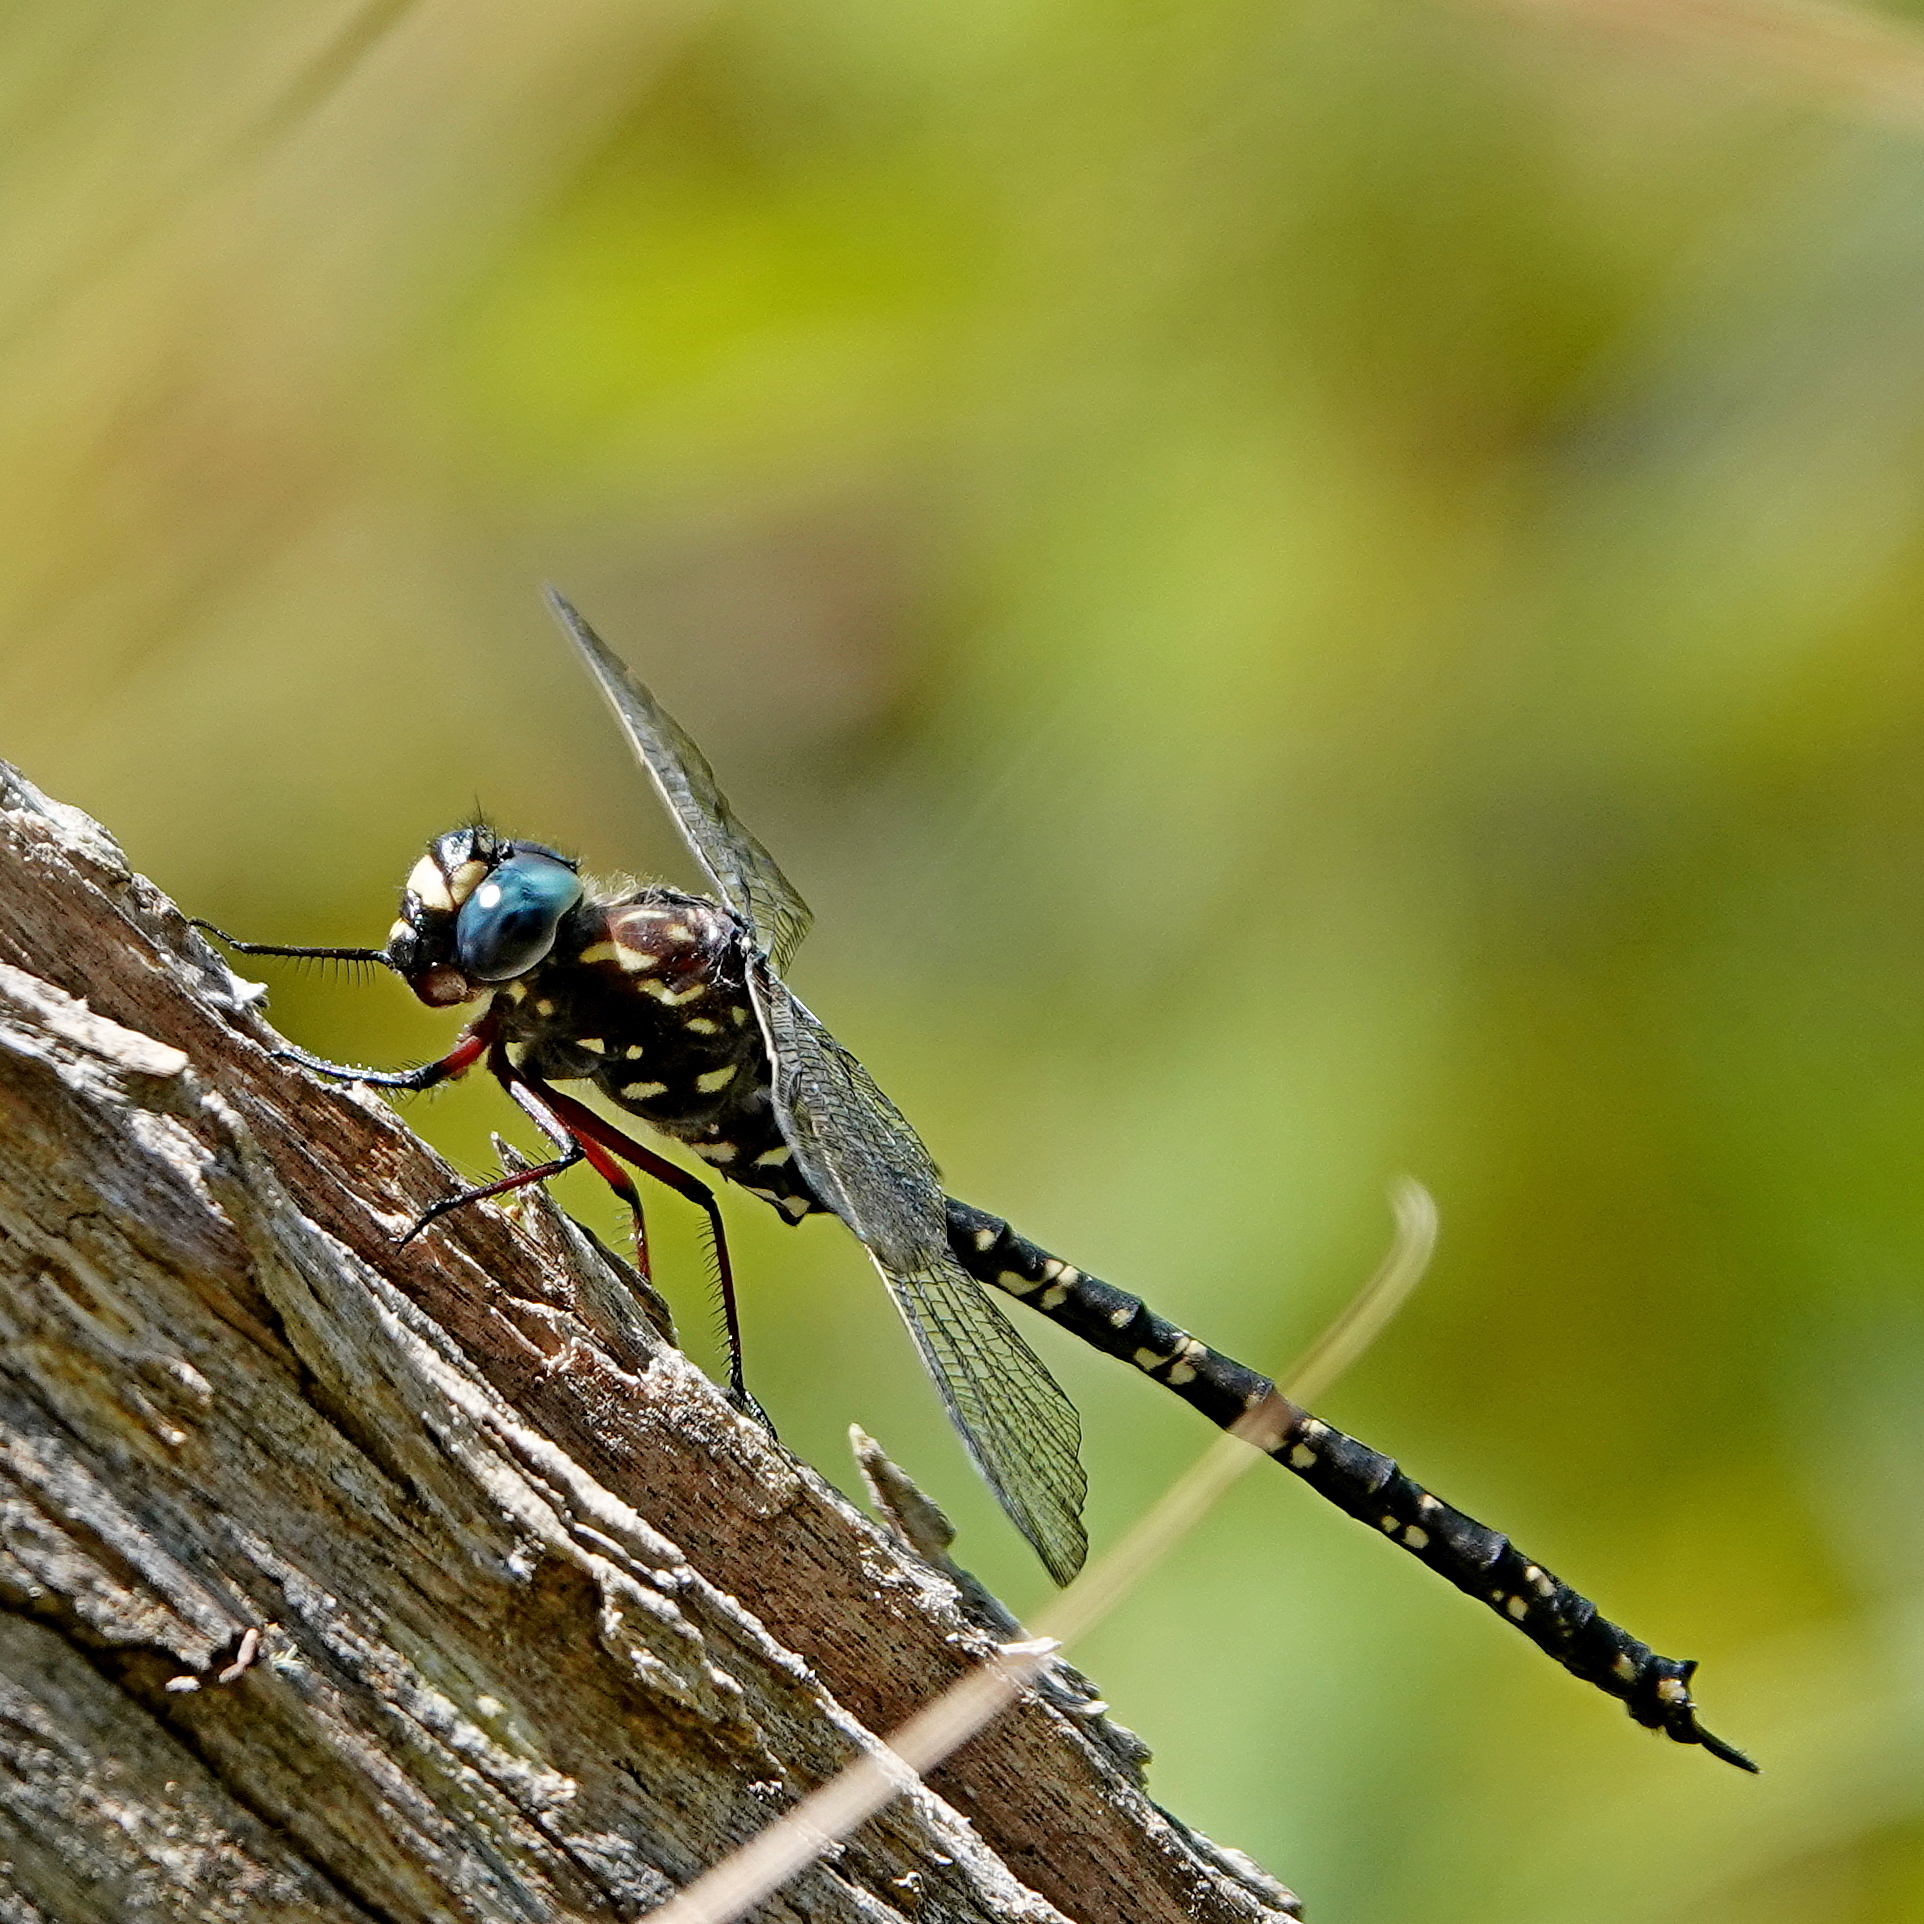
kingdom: Animalia
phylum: Arthropoda
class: Insecta
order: Odonata
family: Aeshnidae
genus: Austroaeschna
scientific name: Austroaeschna multipunctata
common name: Multi-spotted darner
